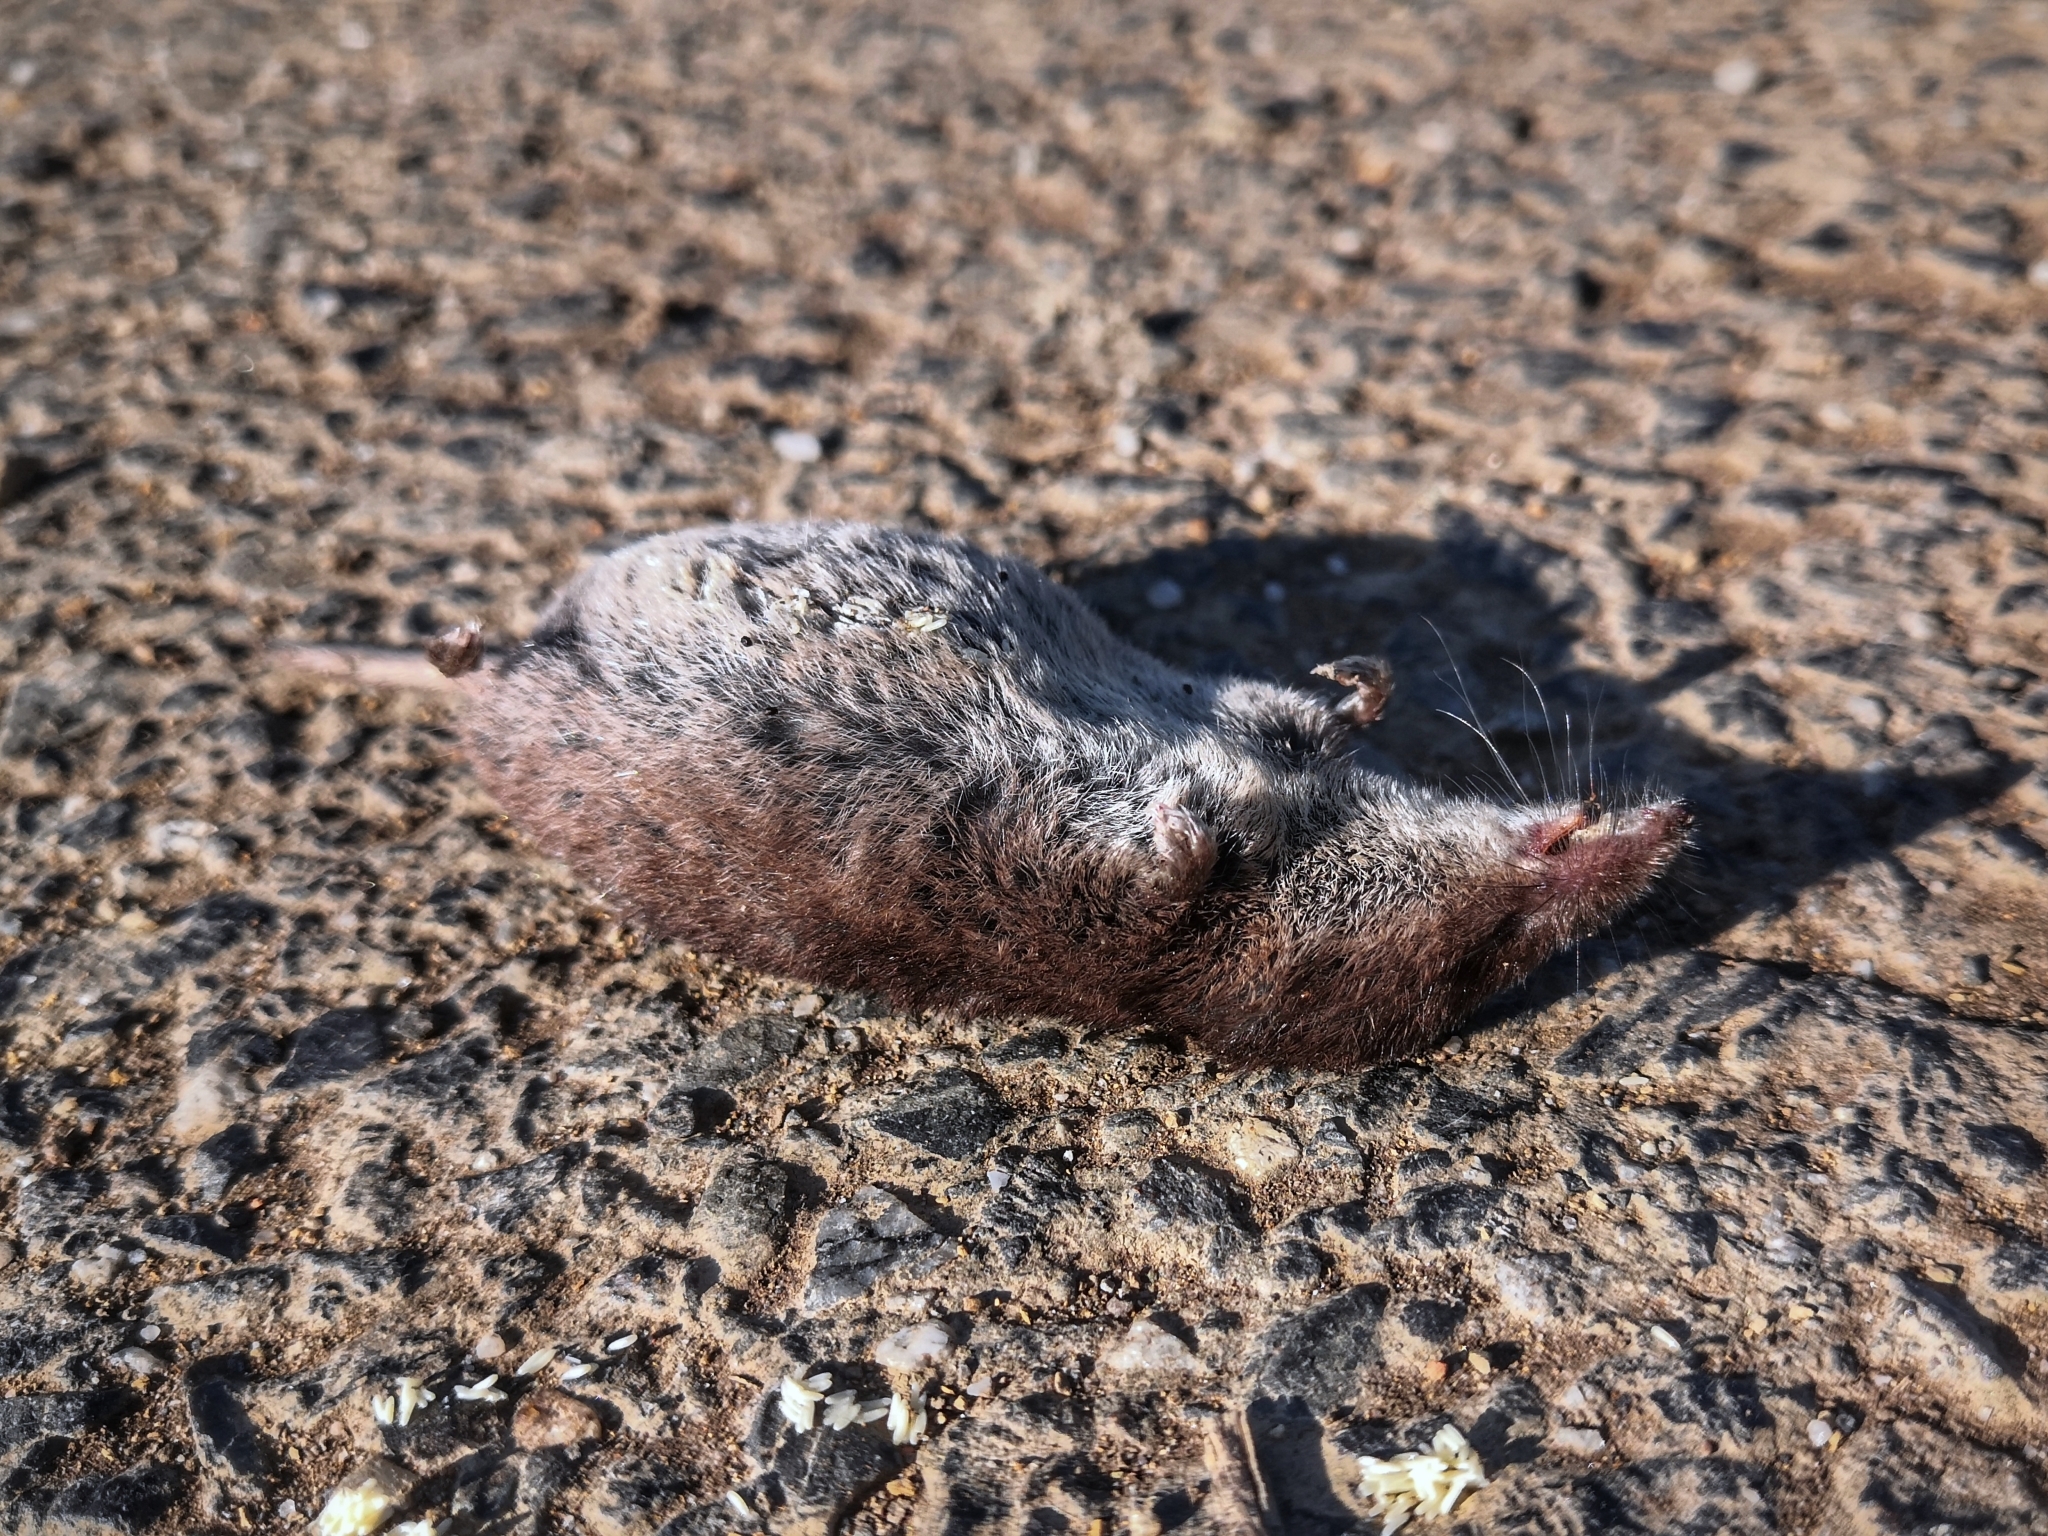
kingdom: Animalia
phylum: Chordata
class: Mammalia
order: Soricomorpha
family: Soricidae
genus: Sorex
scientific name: Sorex araneus
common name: Common shrew
